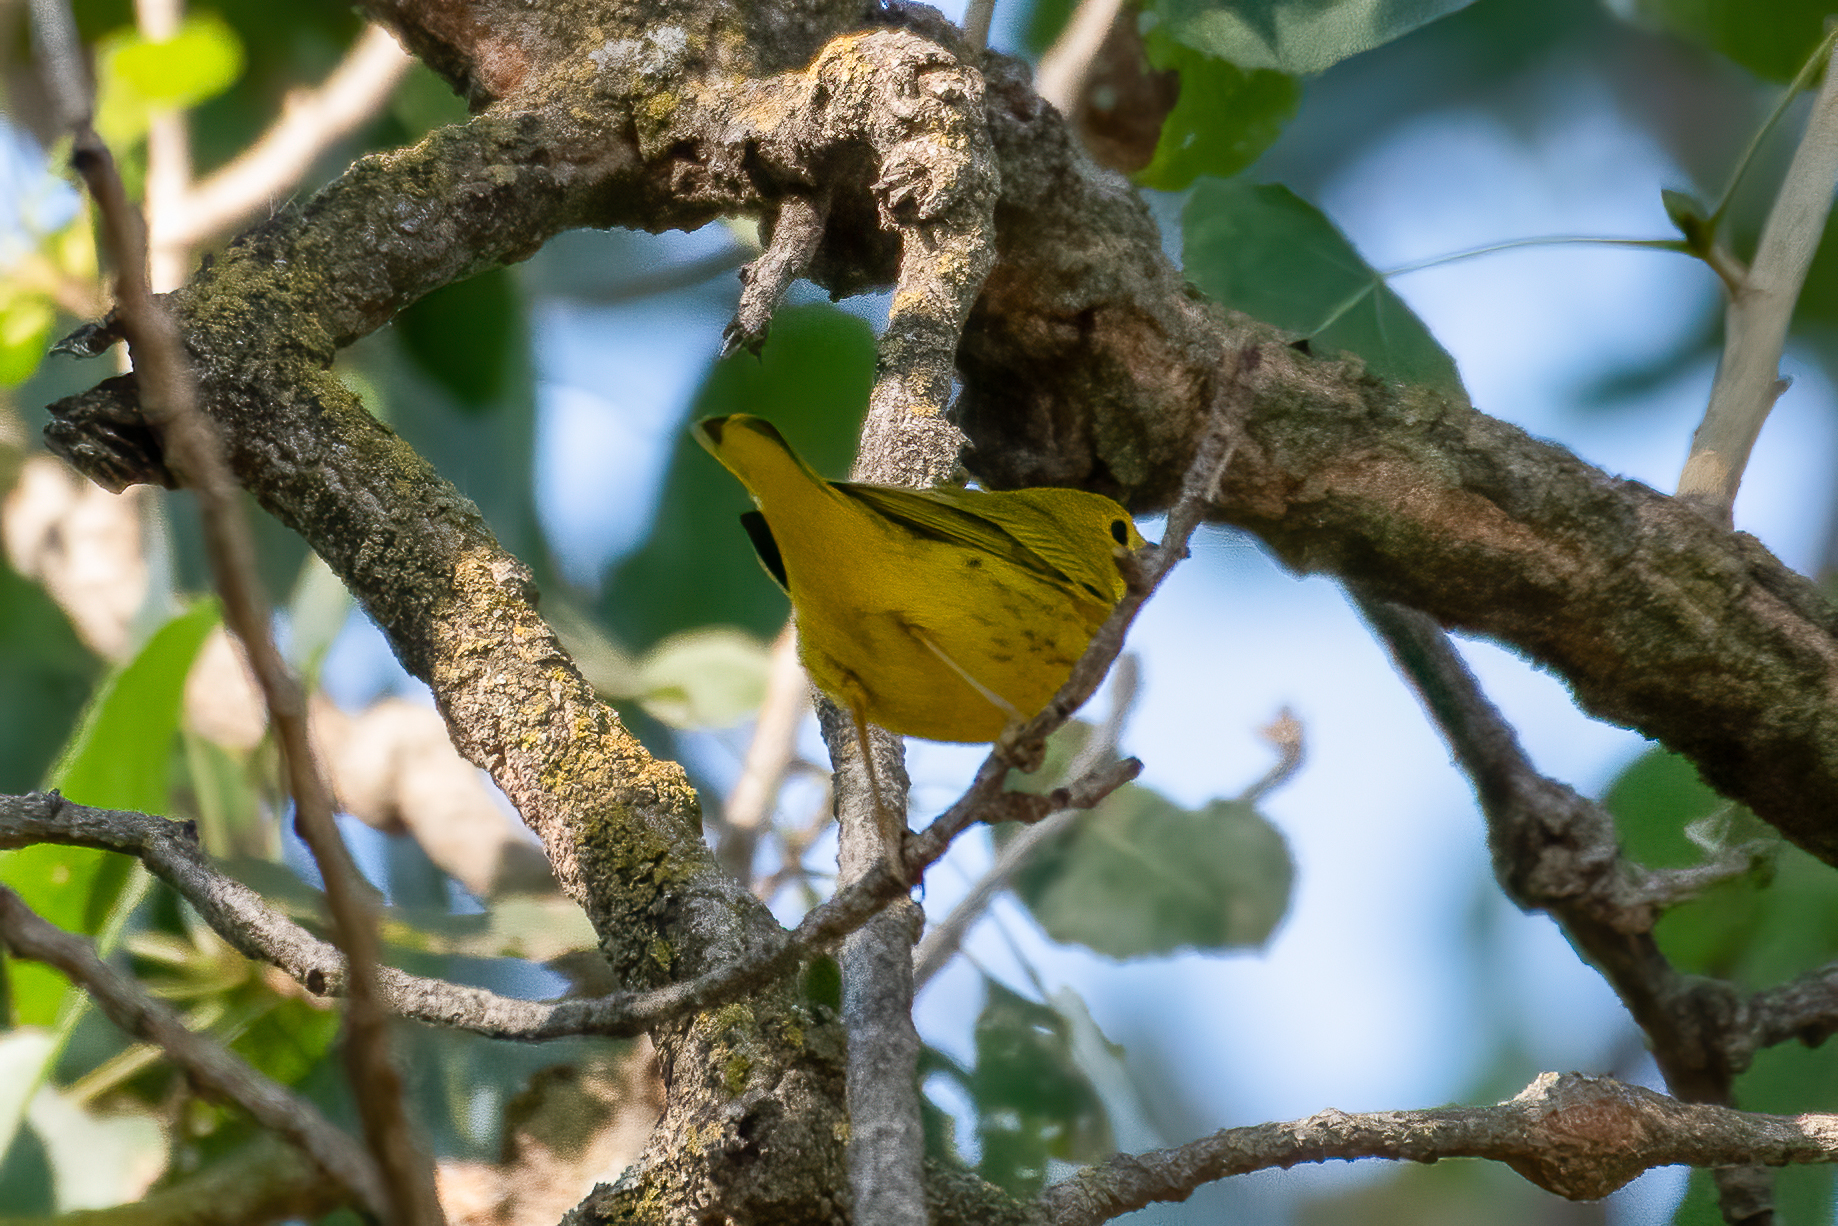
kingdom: Animalia
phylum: Chordata
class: Aves
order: Passeriformes
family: Parulidae
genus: Setophaga
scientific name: Setophaga petechia
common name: Yellow warbler
